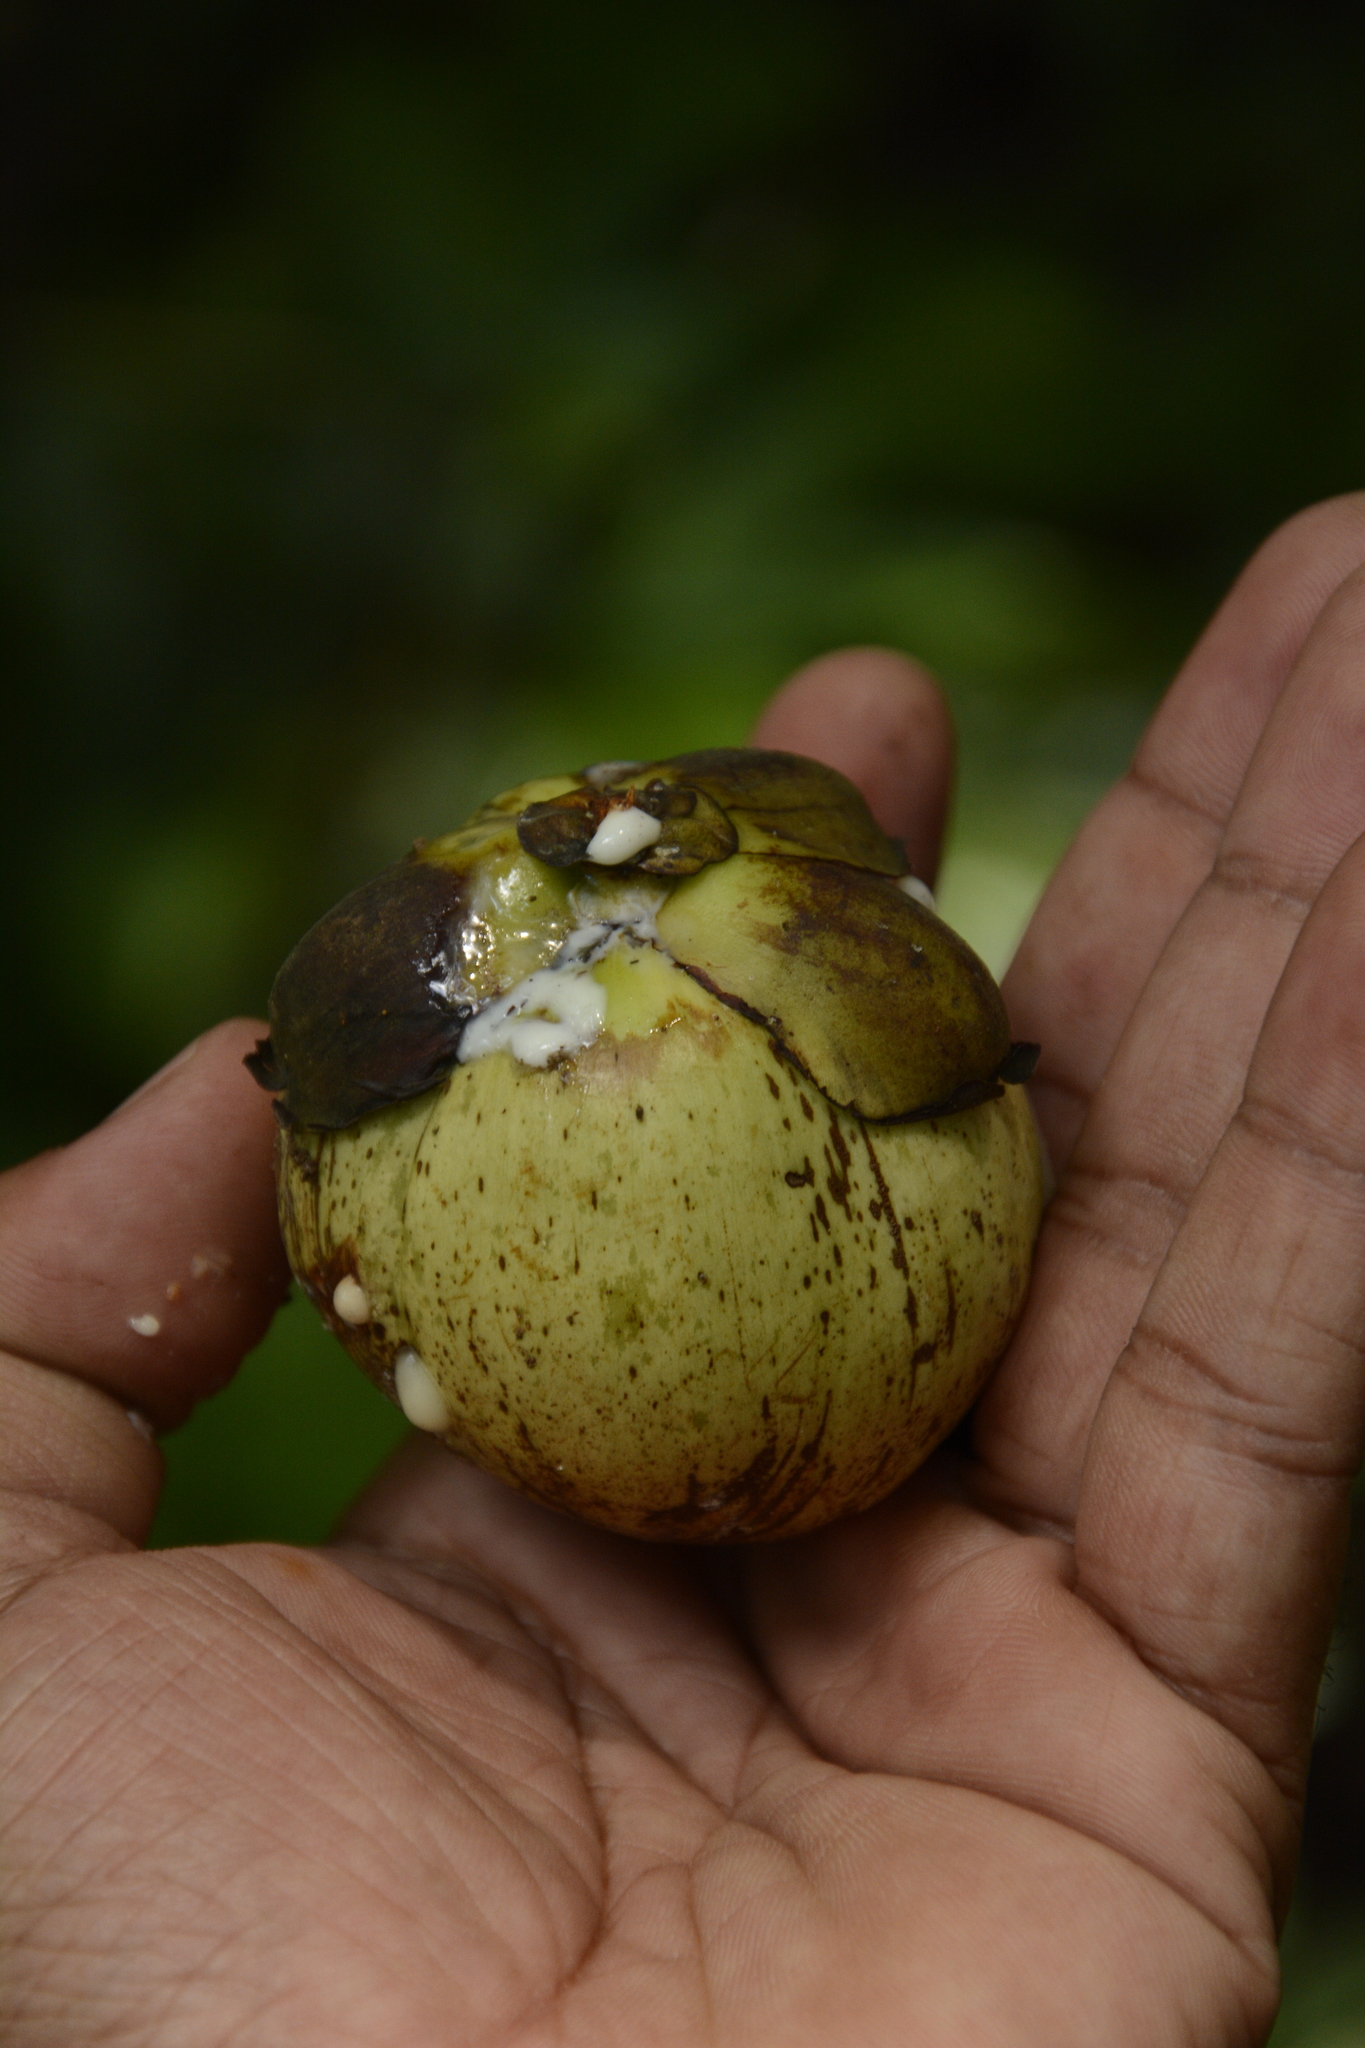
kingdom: Plantae
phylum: Tracheophyta
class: Magnoliopsida
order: Malpighiales
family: Calophyllaceae
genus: Mesua
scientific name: Mesua ferrea
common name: Mesua
